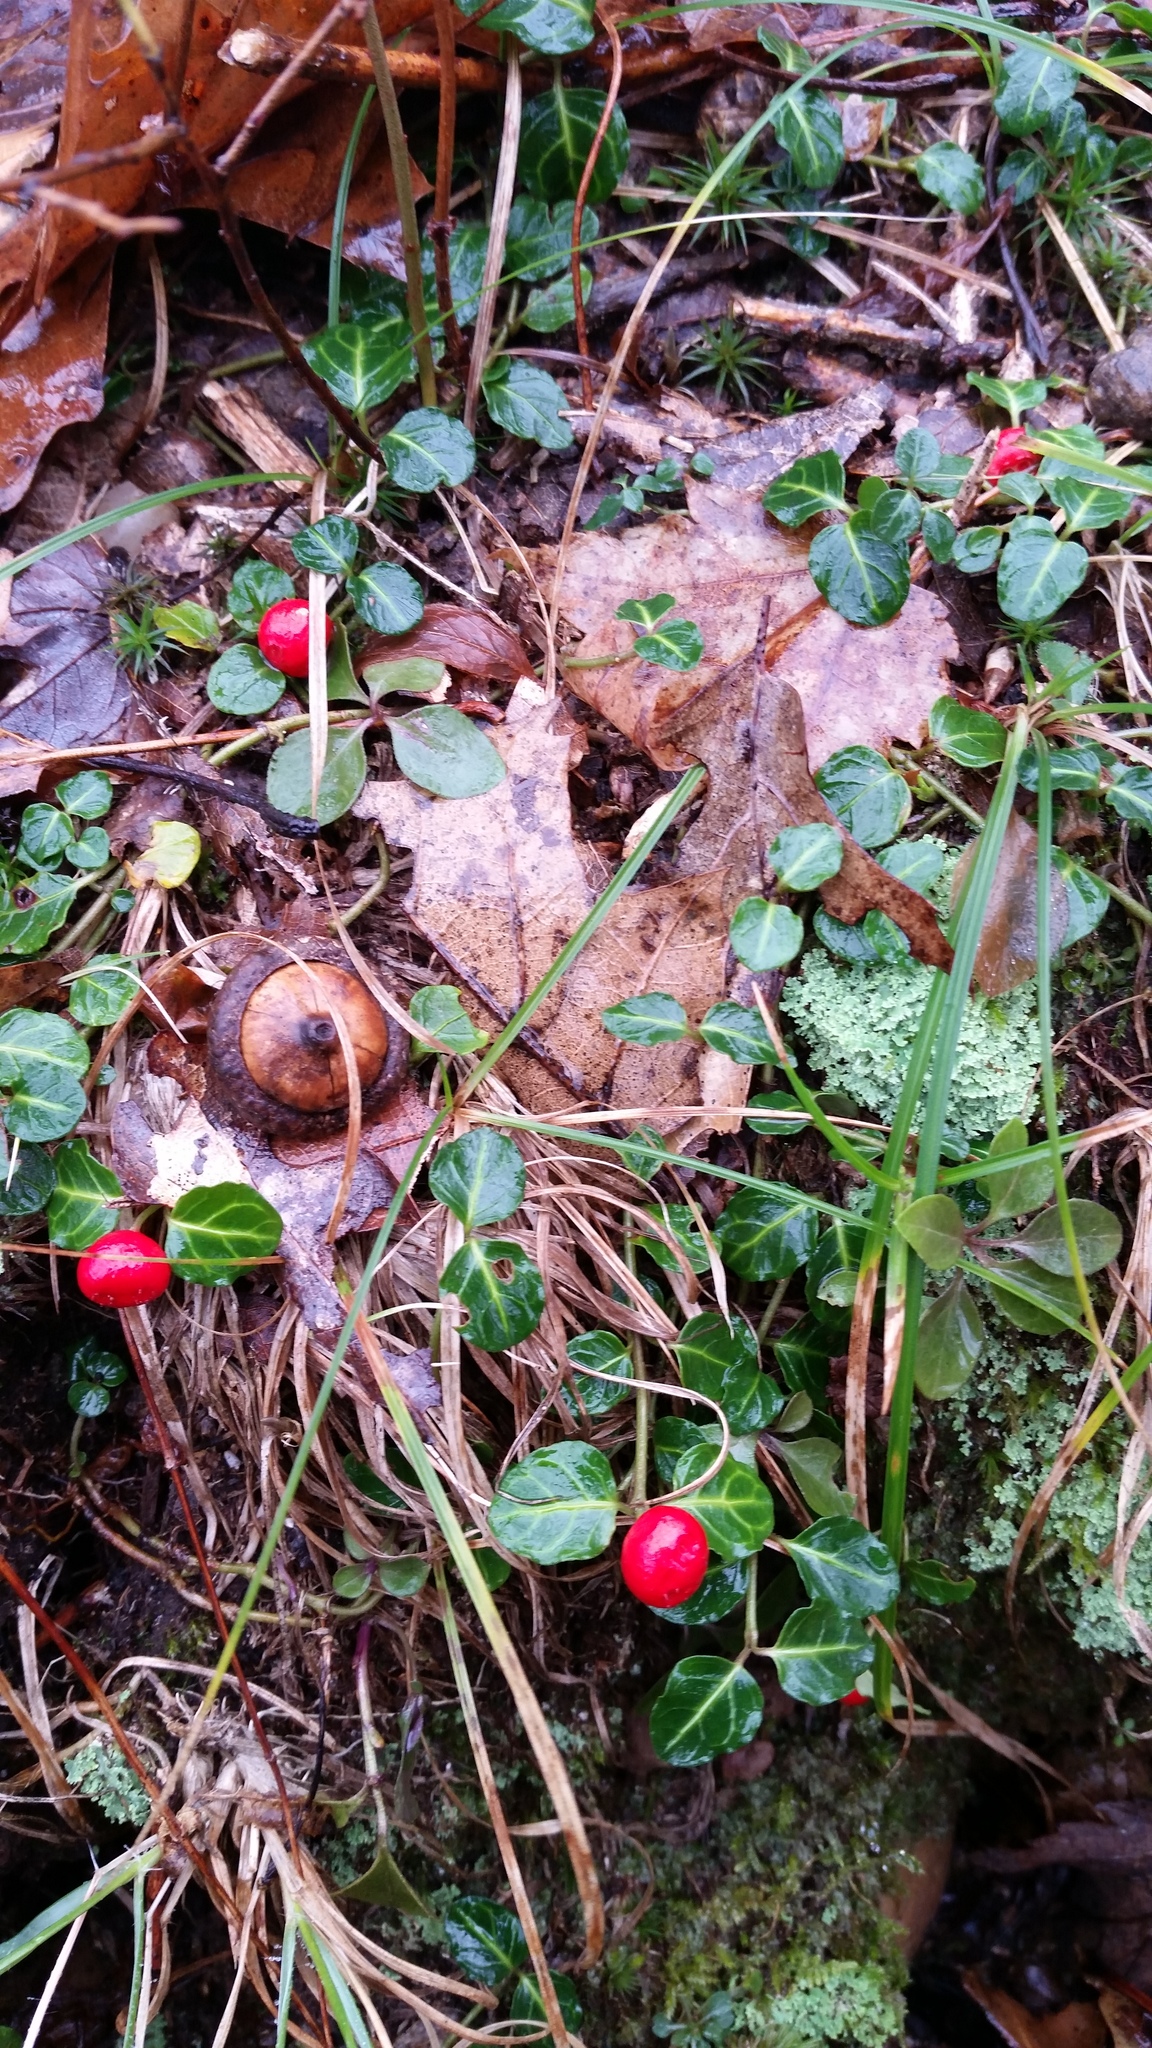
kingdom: Plantae
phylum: Tracheophyta
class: Magnoliopsida
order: Gentianales
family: Rubiaceae
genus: Mitchella
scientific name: Mitchella repens
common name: Partridge-berry
